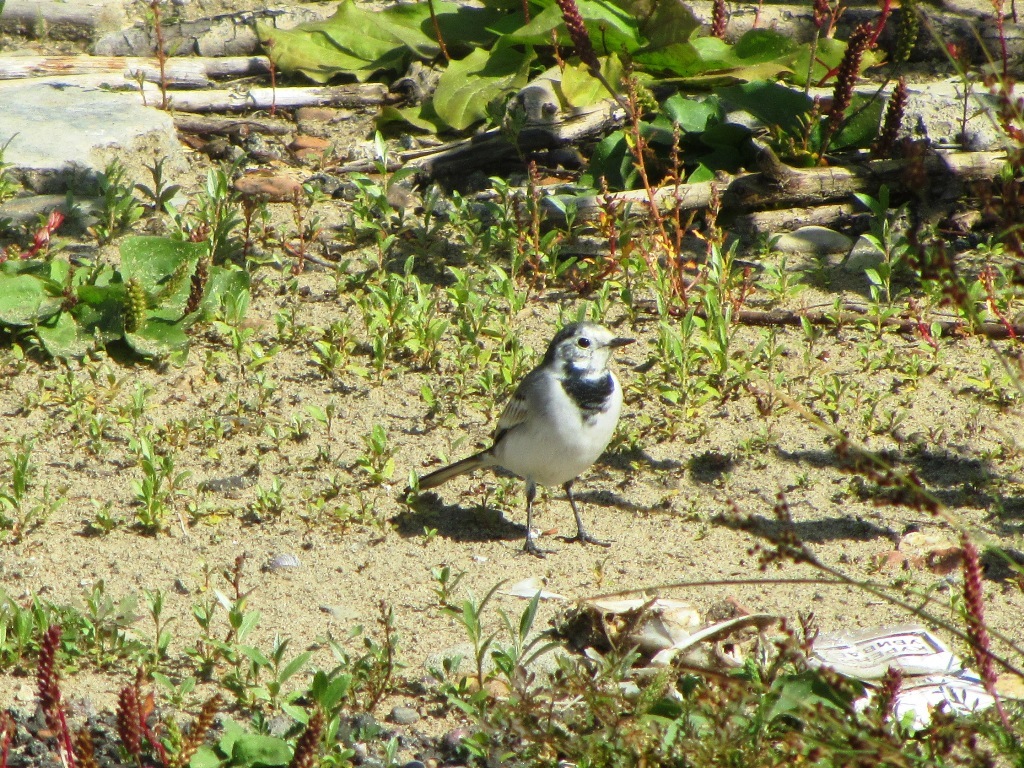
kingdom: Animalia
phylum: Chordata
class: Aves
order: Passeriformes
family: Motacillidae
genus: Motacilla
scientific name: Motacilla alba
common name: White wagtail
